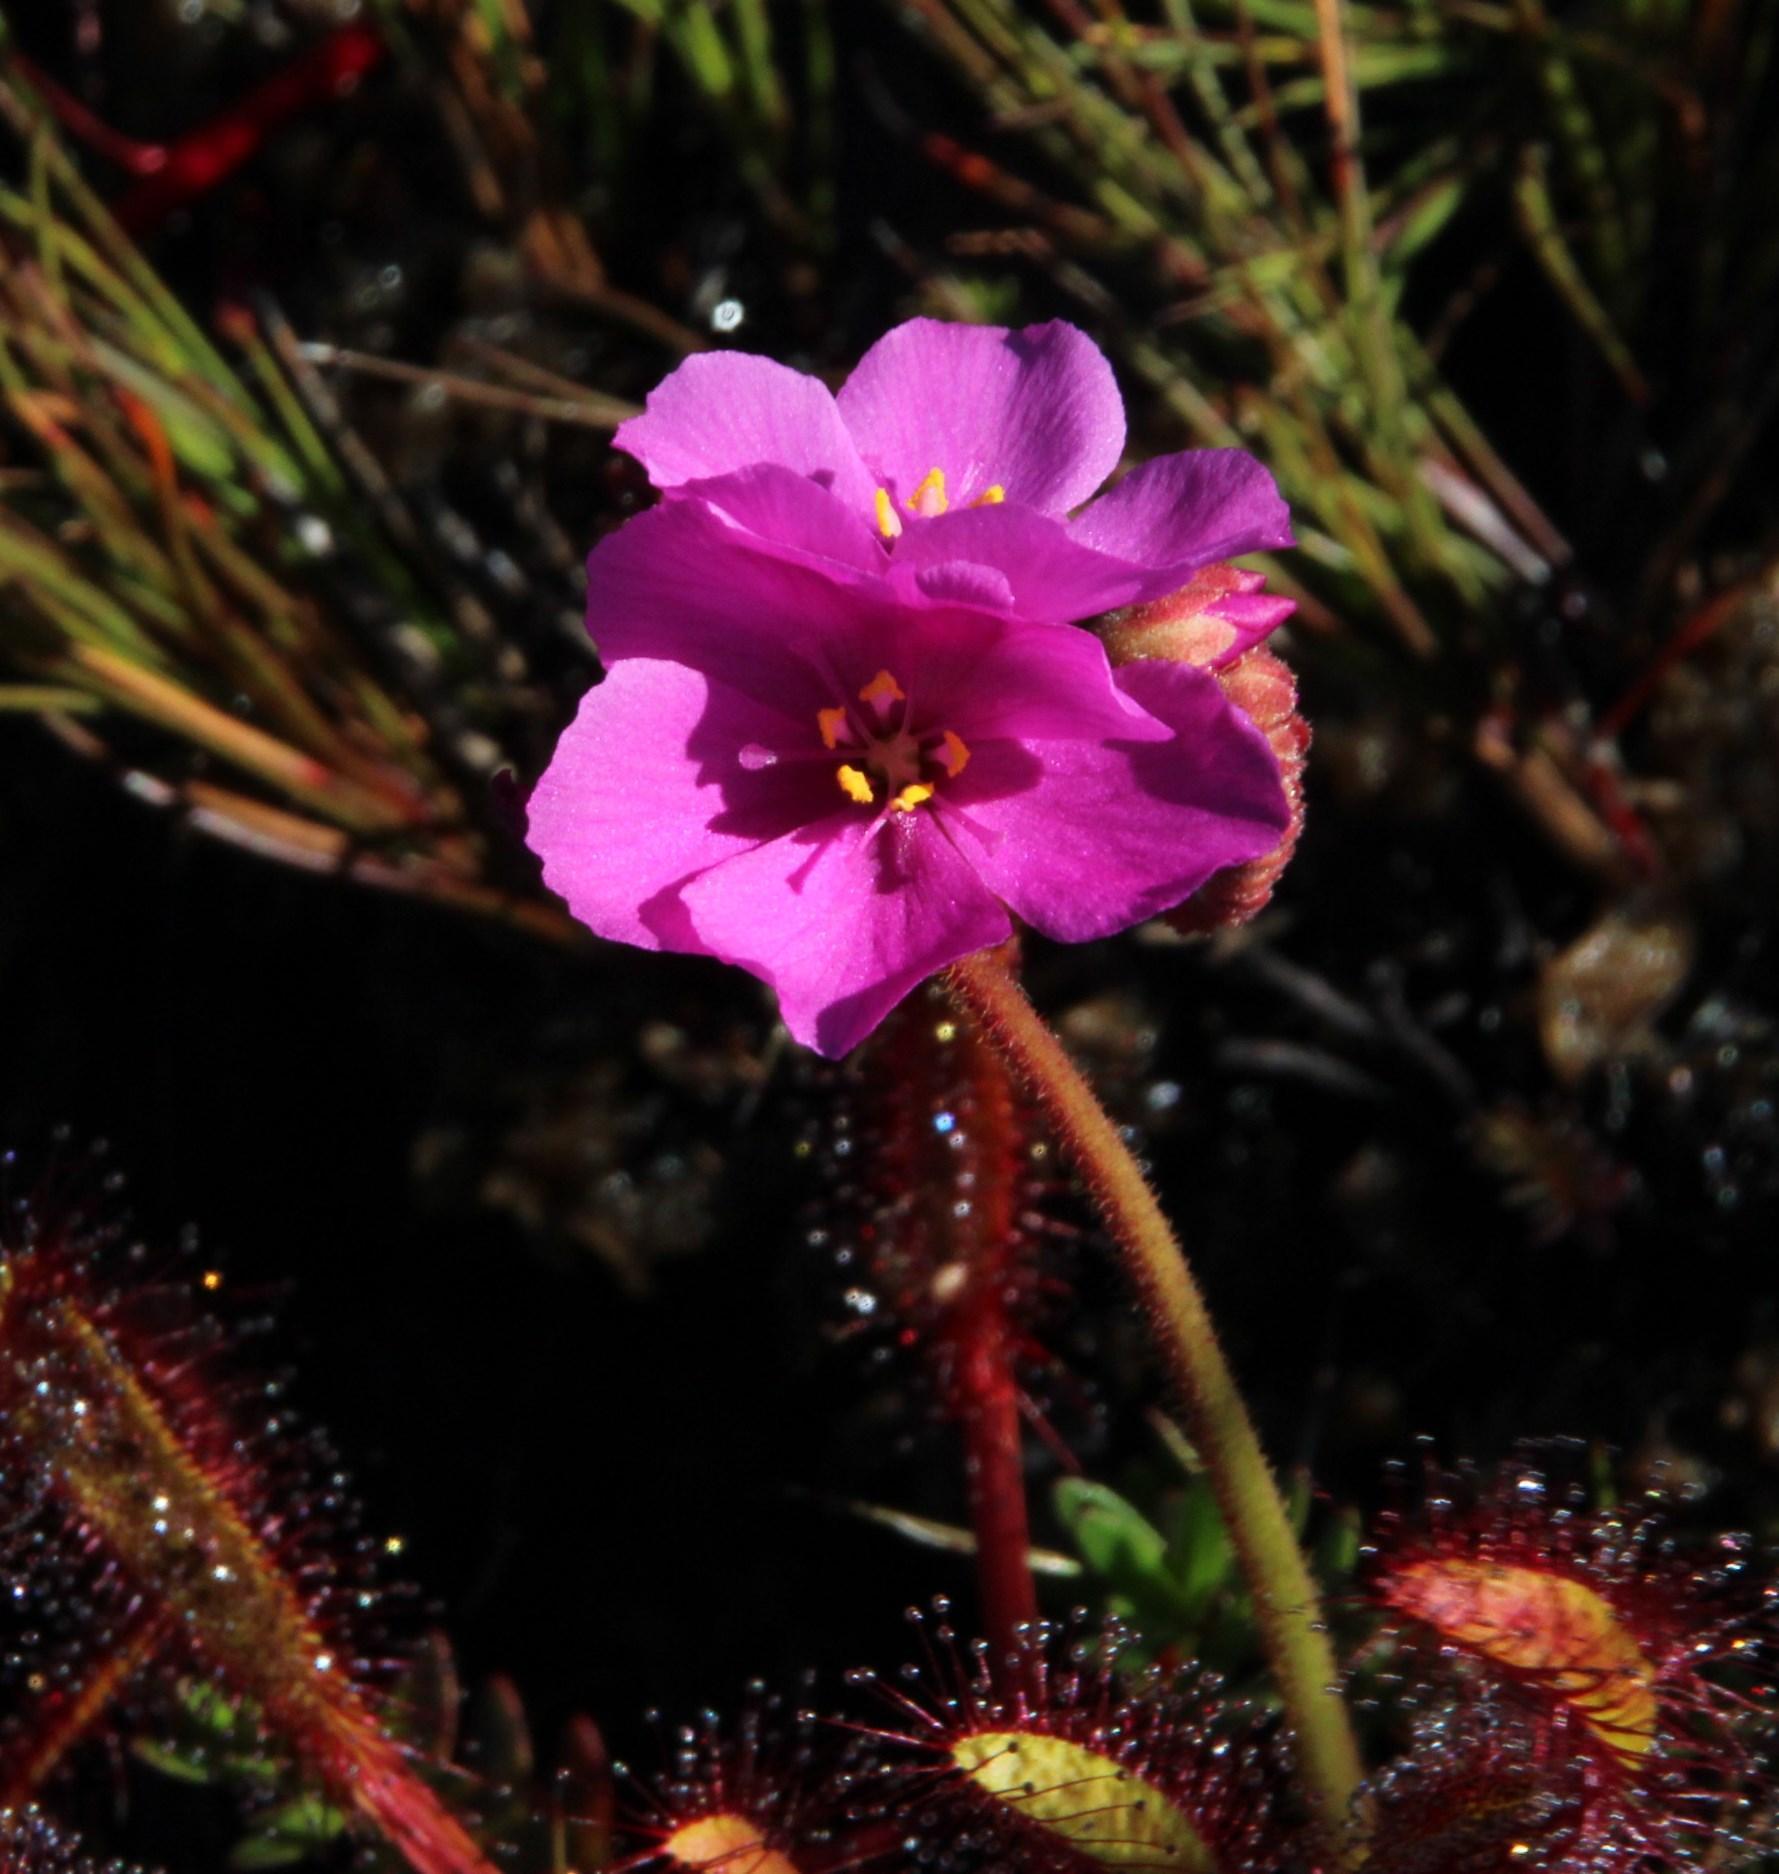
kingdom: Plantae
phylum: Tracheophyta
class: Magnoliopsida
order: Caryophyllales
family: Droseraceae
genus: Drosera
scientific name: Drosera capensis
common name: Cape sundew
